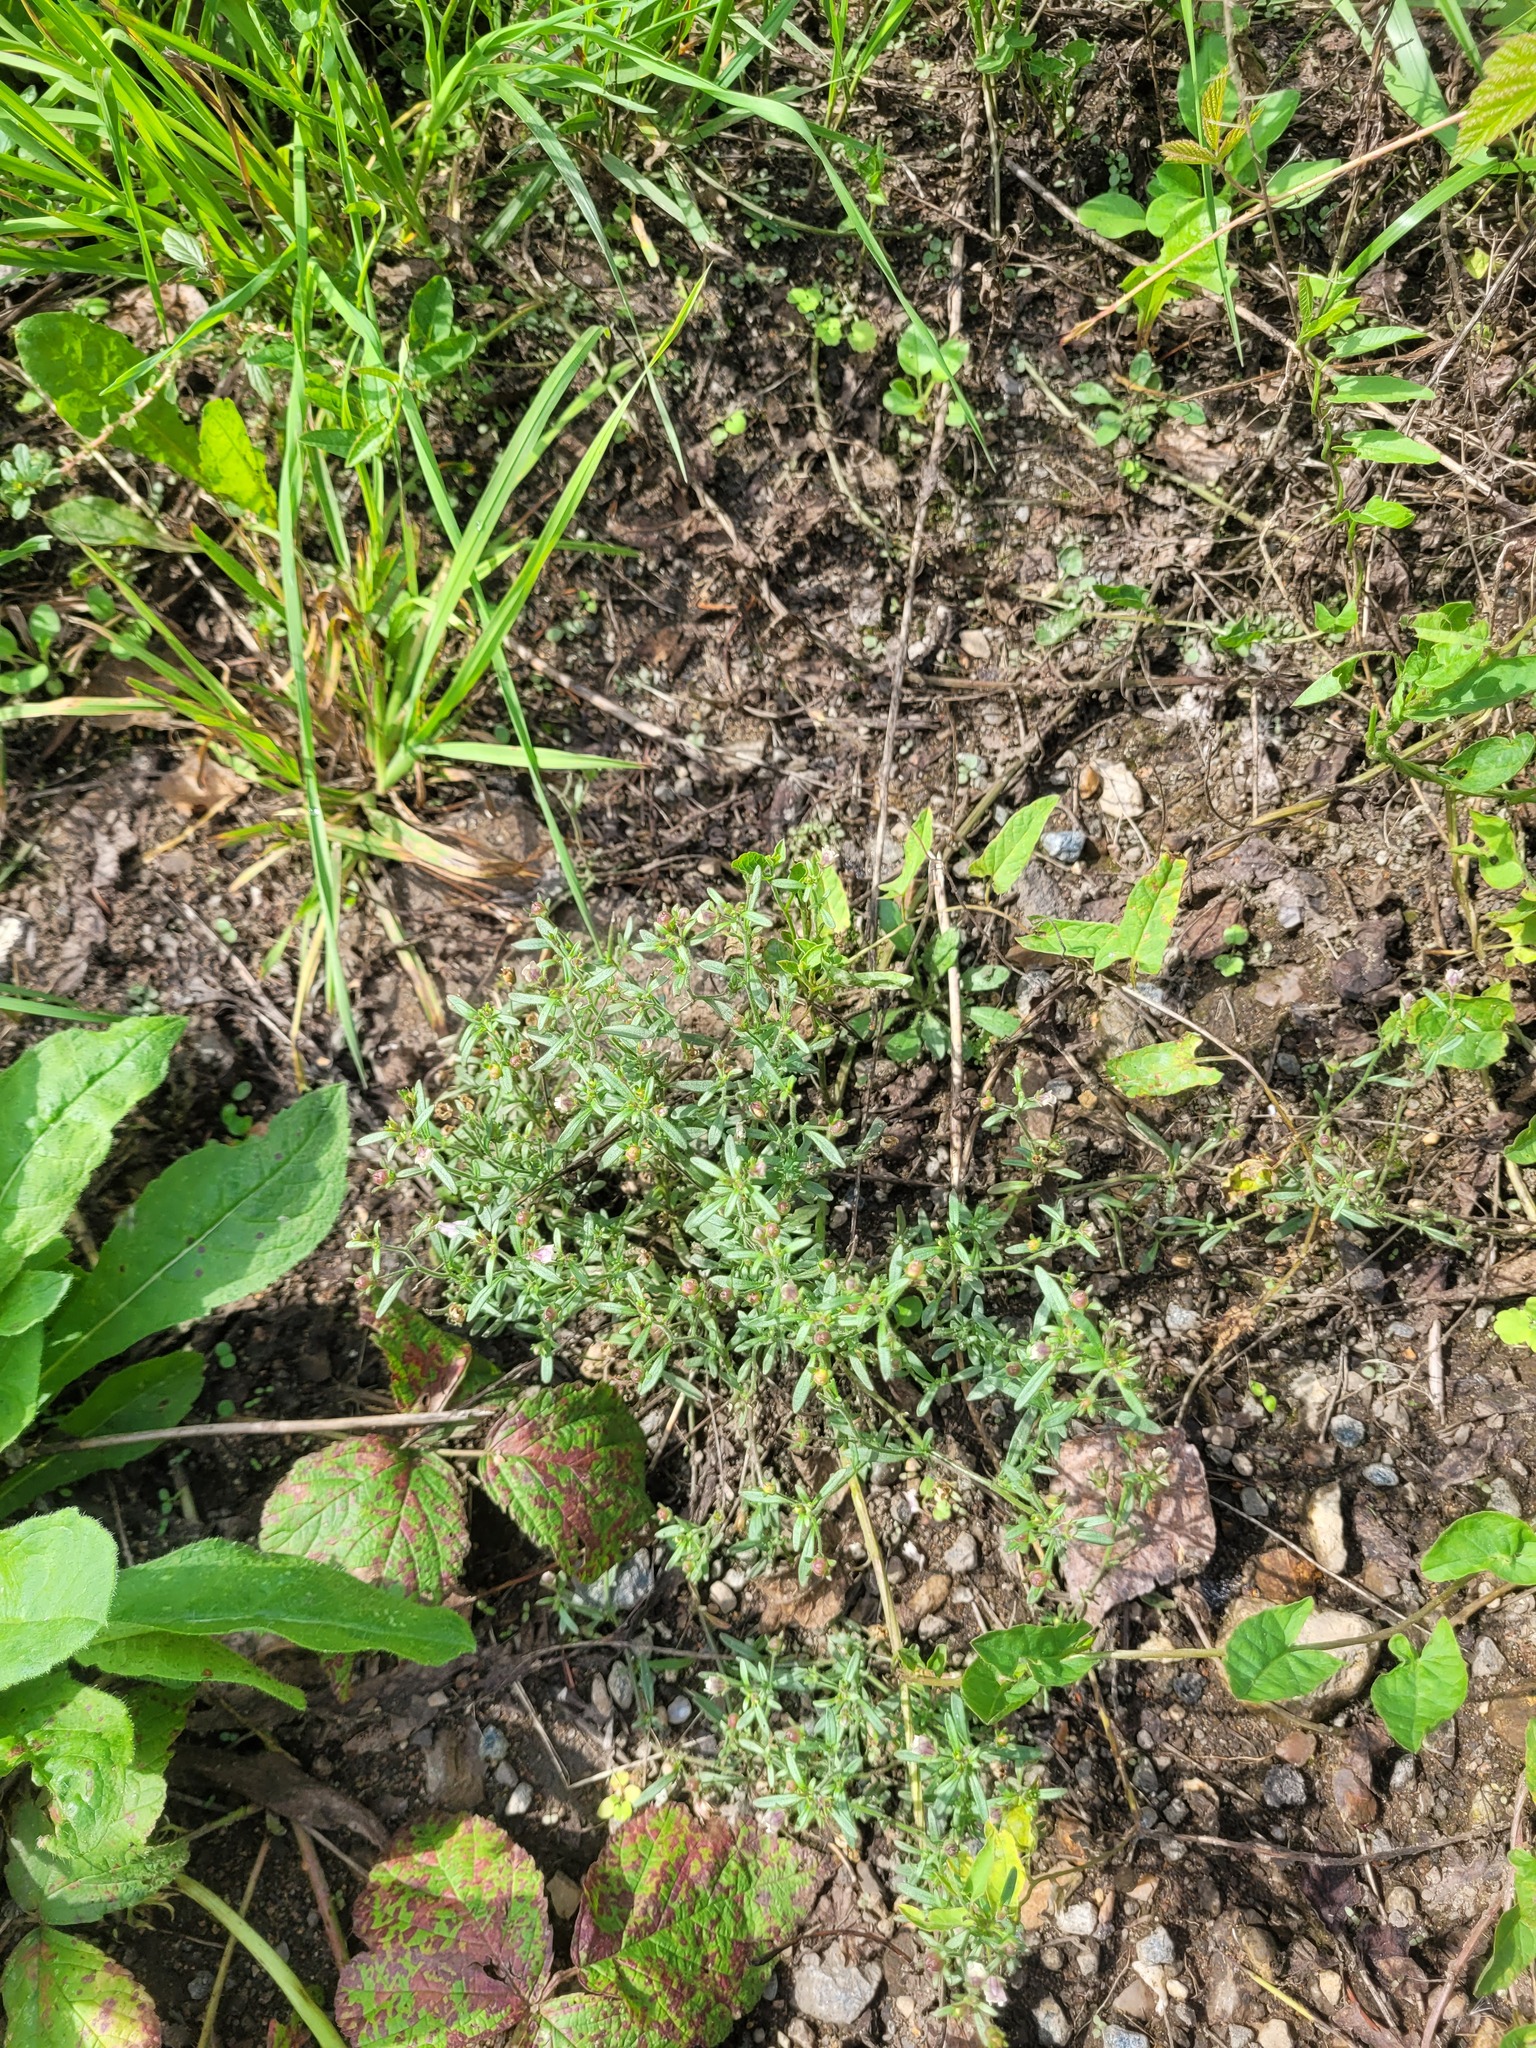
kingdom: Plantae
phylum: Tracheophyta
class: Magnoliopsida
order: Lamiales
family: Plantaginaceae
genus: Chaenorhinum
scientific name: Chaenorhinum minus
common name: Dwarf snapdragon
